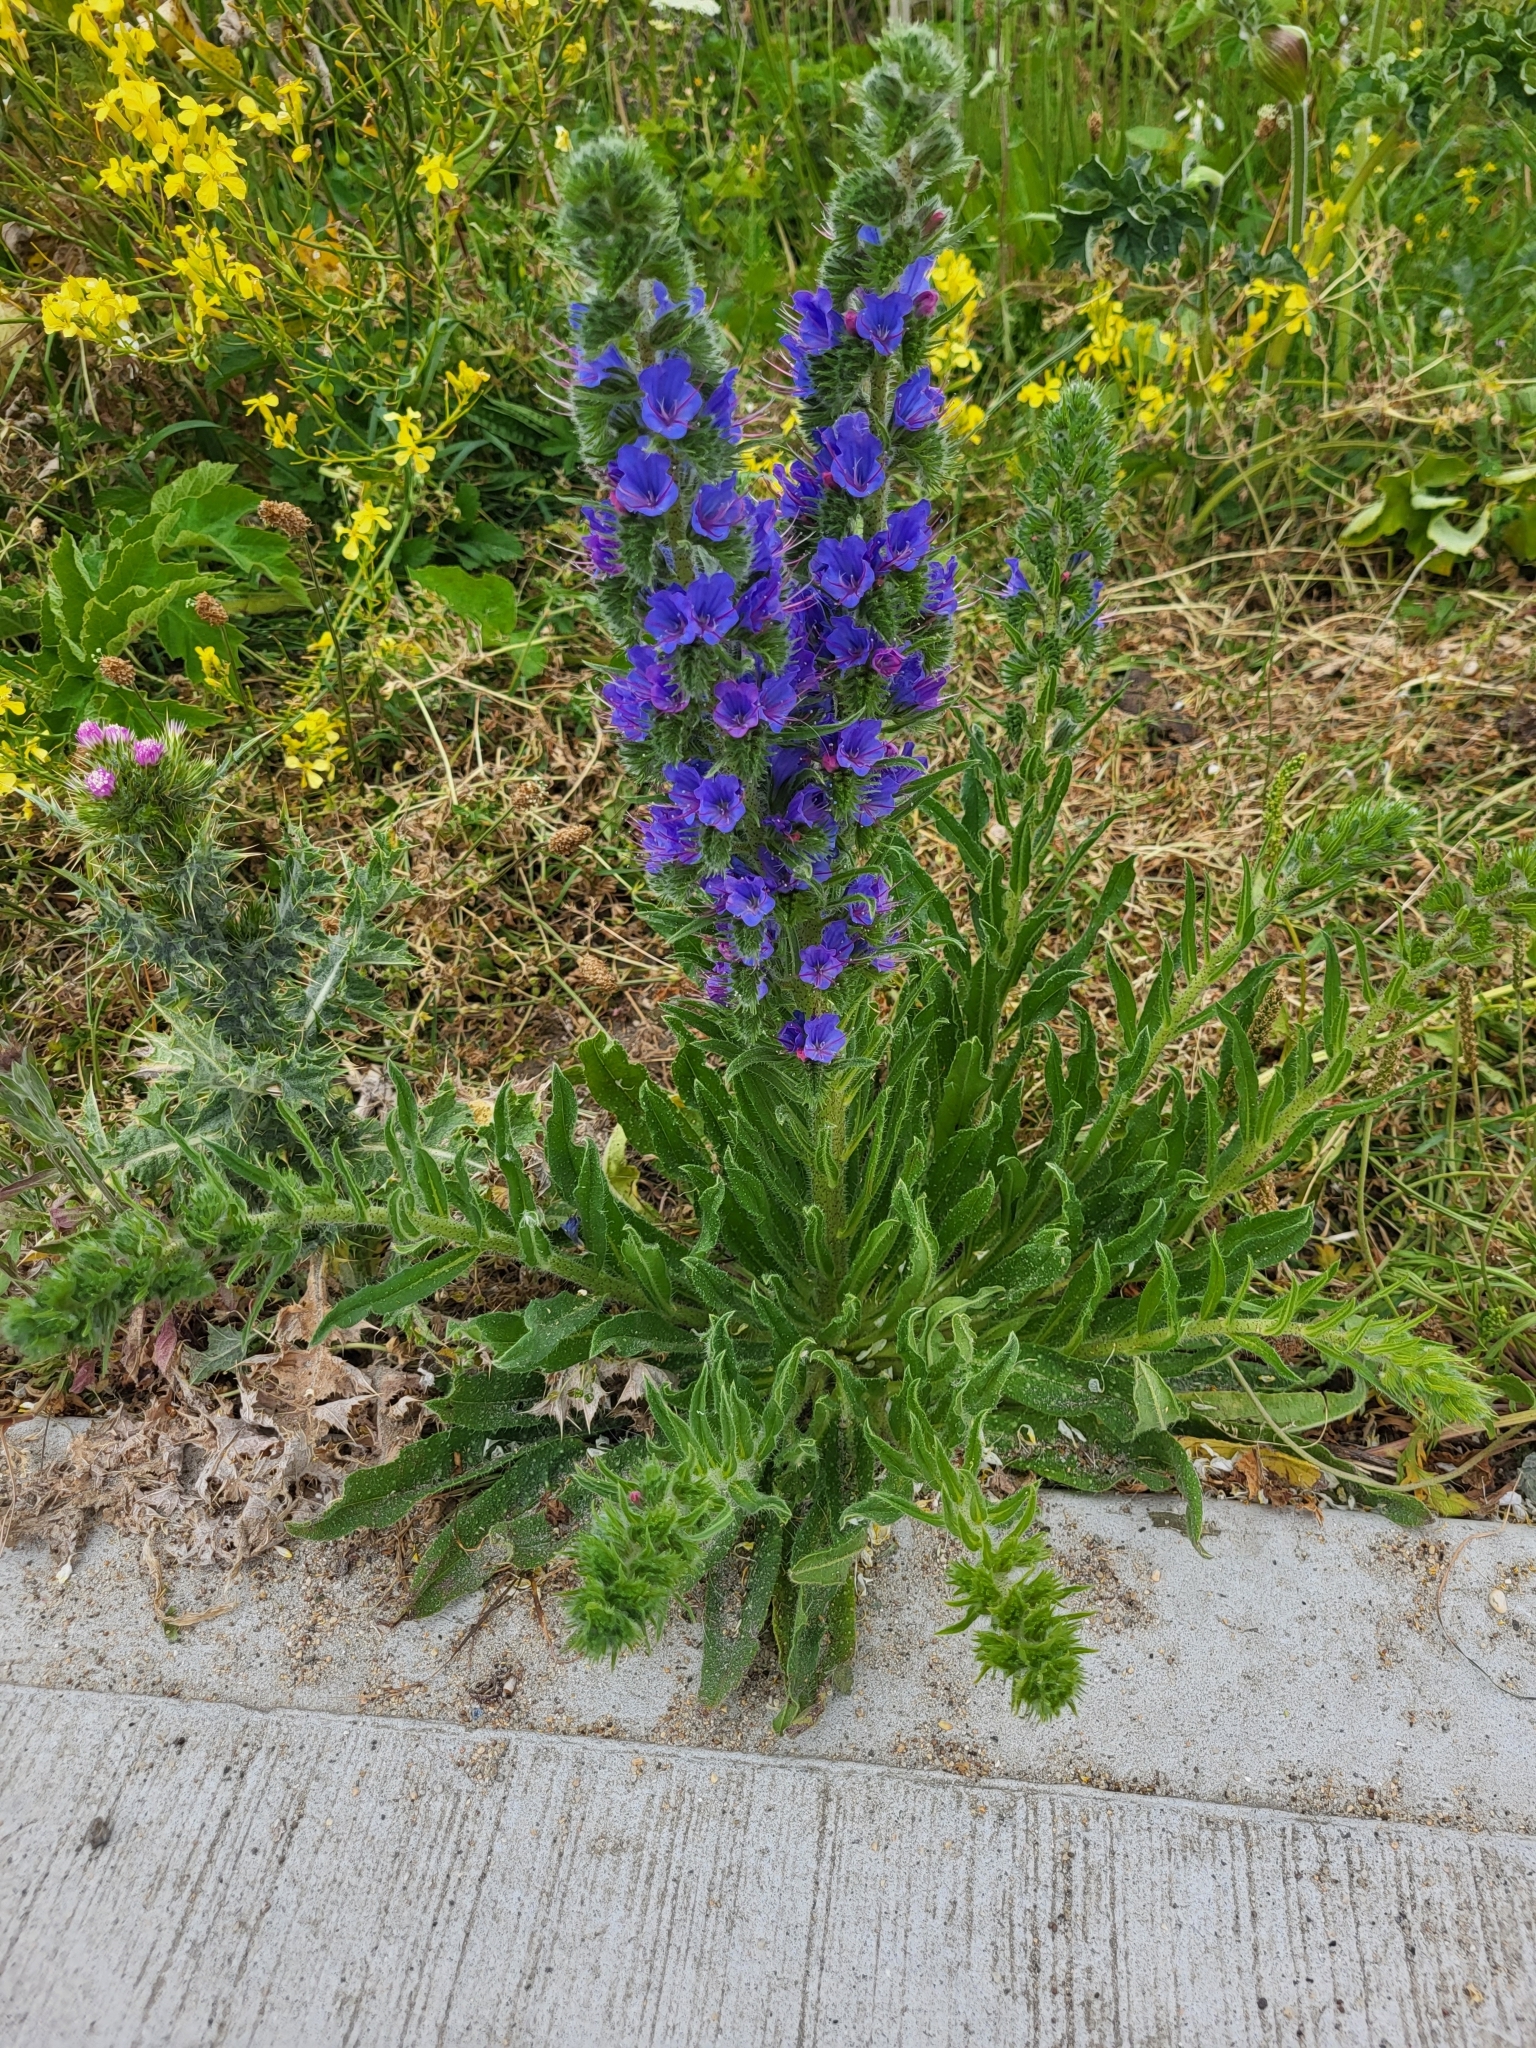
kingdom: Plantae
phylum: Tracheophyta
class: Magnoliopsida
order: Boraginales
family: Boraginaceae
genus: Echium
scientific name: Echium vulgare
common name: Common viper's bugloss
